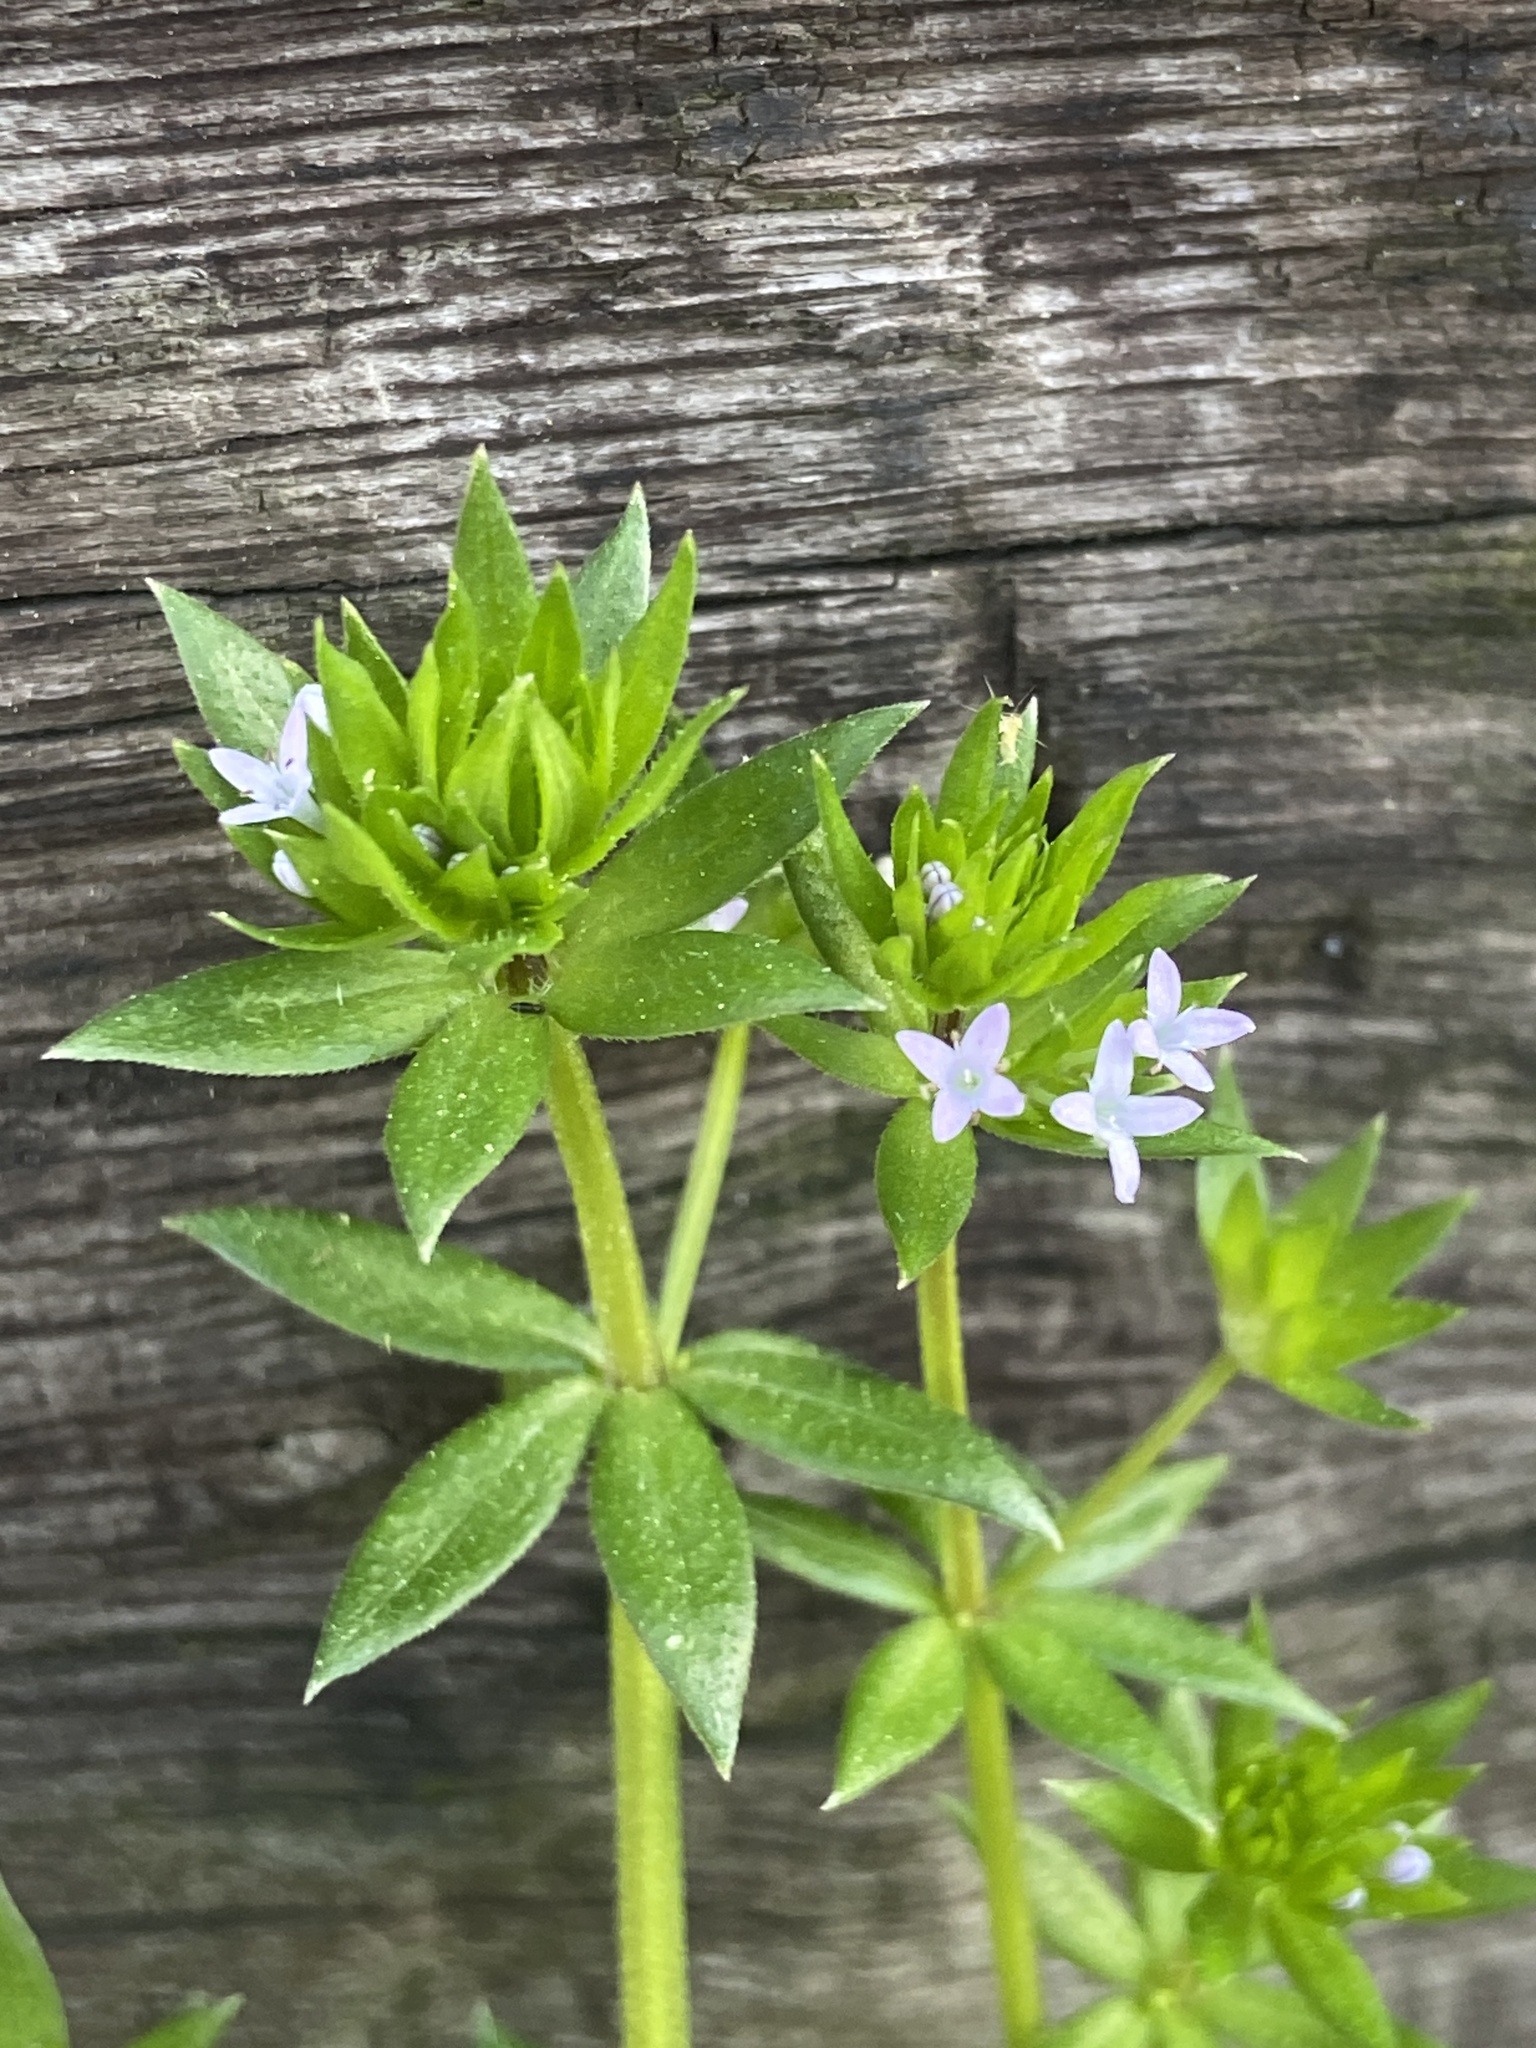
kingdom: Plantae
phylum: Tracheophyta
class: Magnoliopsida
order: Gentianales
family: Rubiaceae
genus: Sherardia
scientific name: Sherardia arvensis
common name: Field madder
